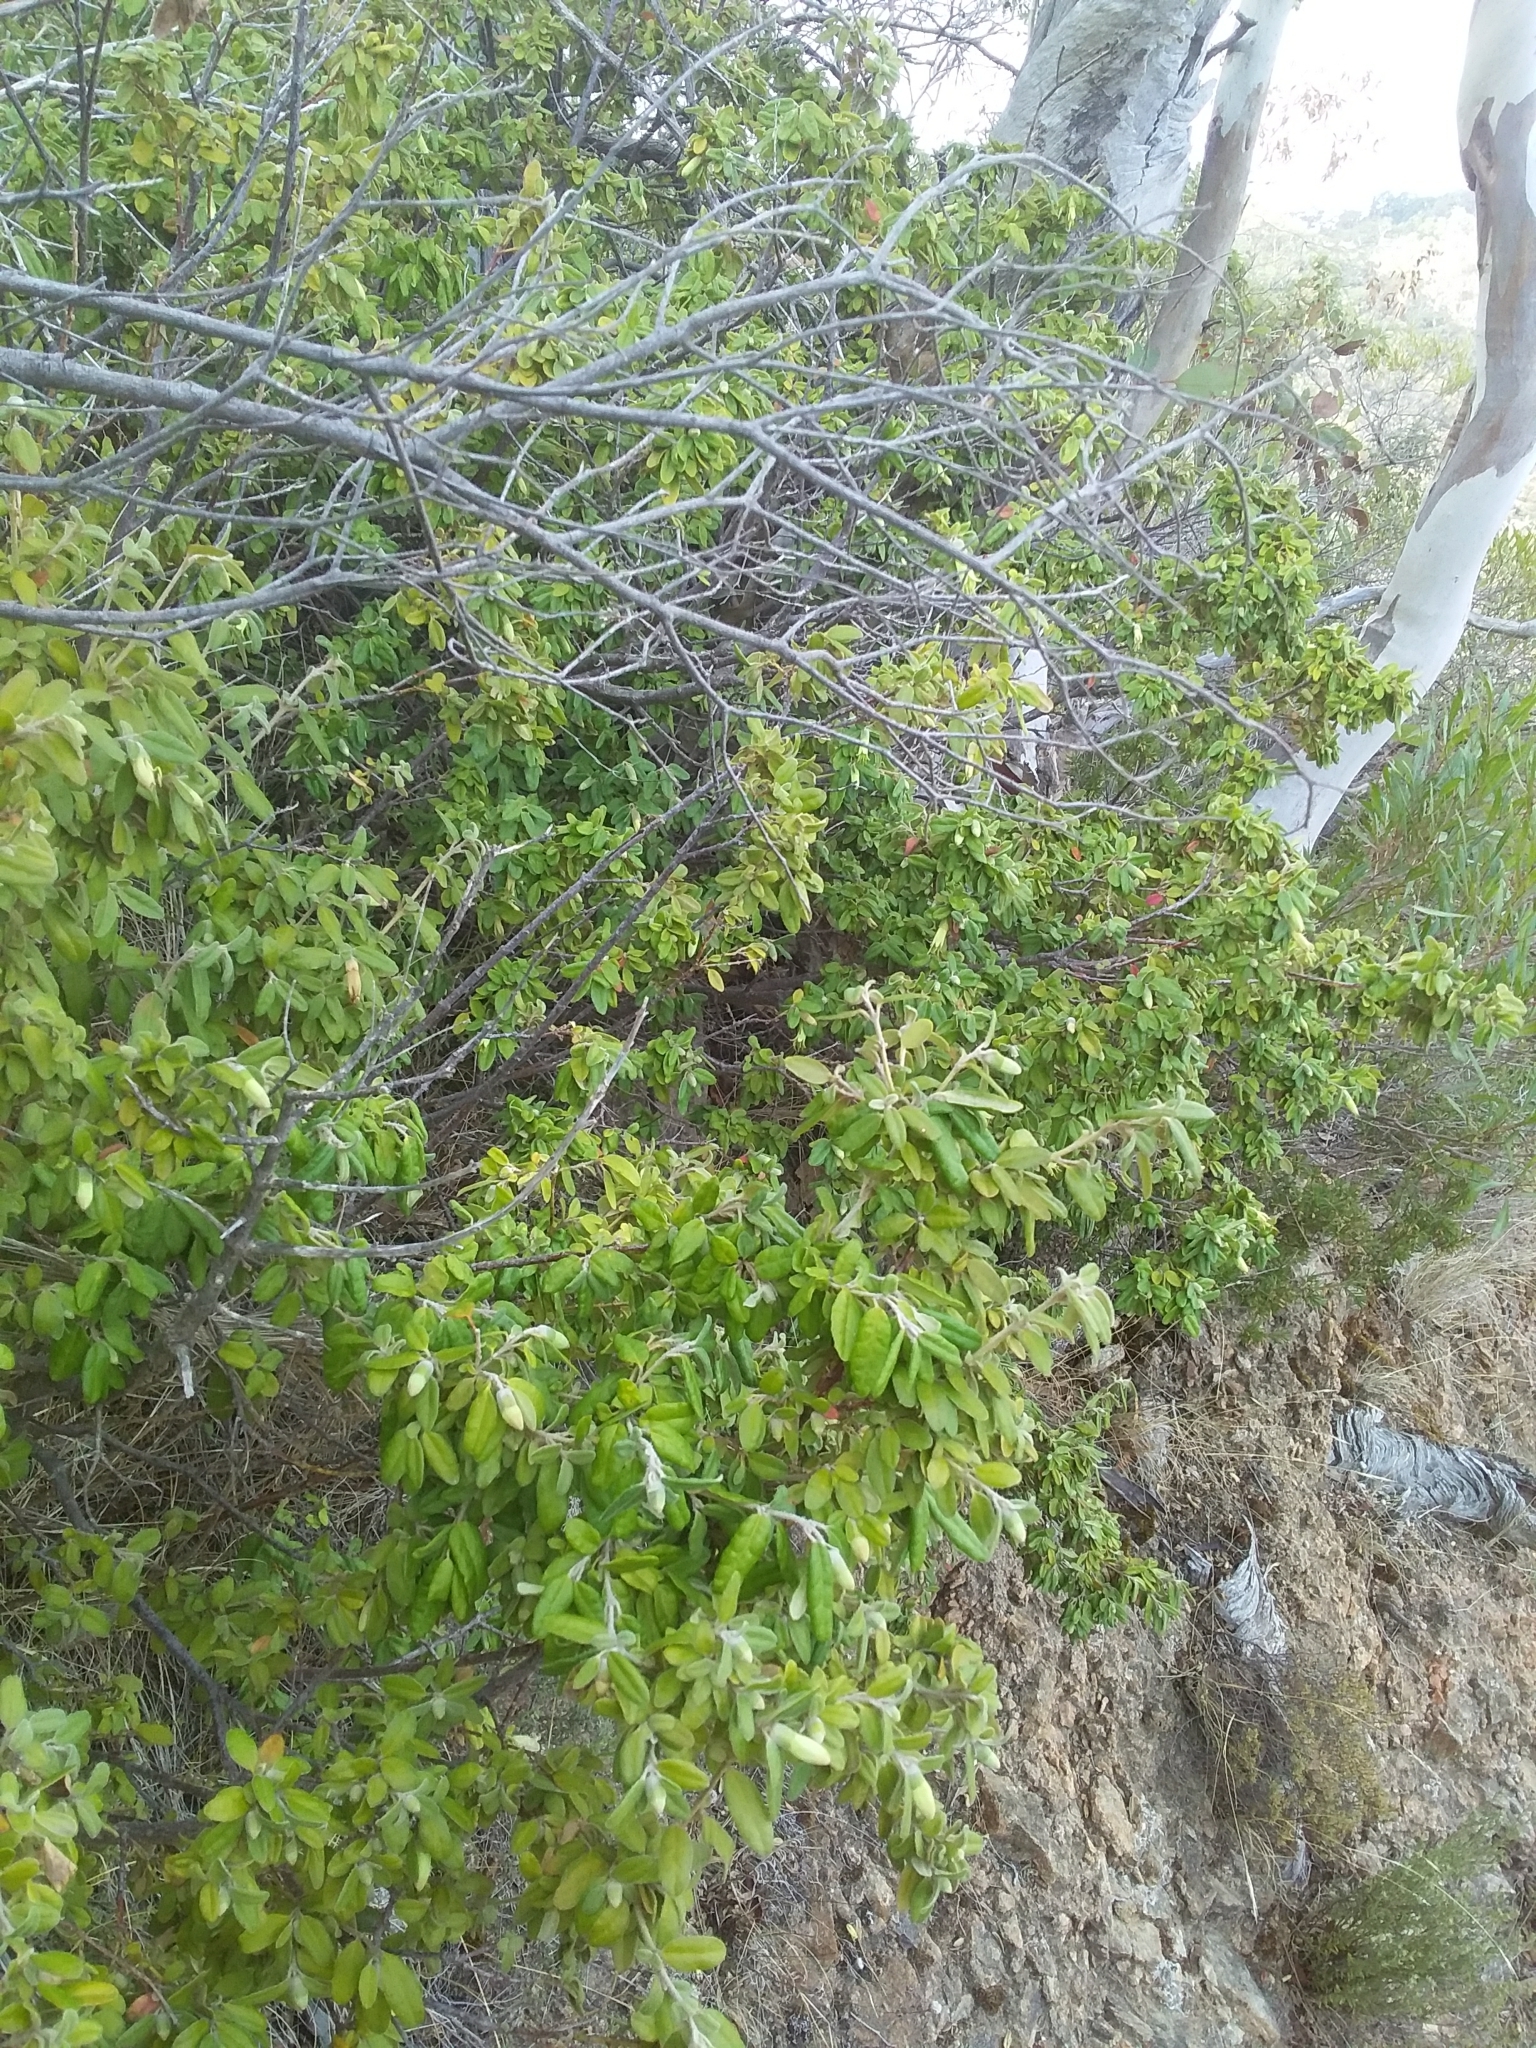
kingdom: Plantae
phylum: Tracheophyta
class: Magnoliopsida
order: Sapindales
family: Rutaceae
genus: Correa
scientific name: Correa glabra
